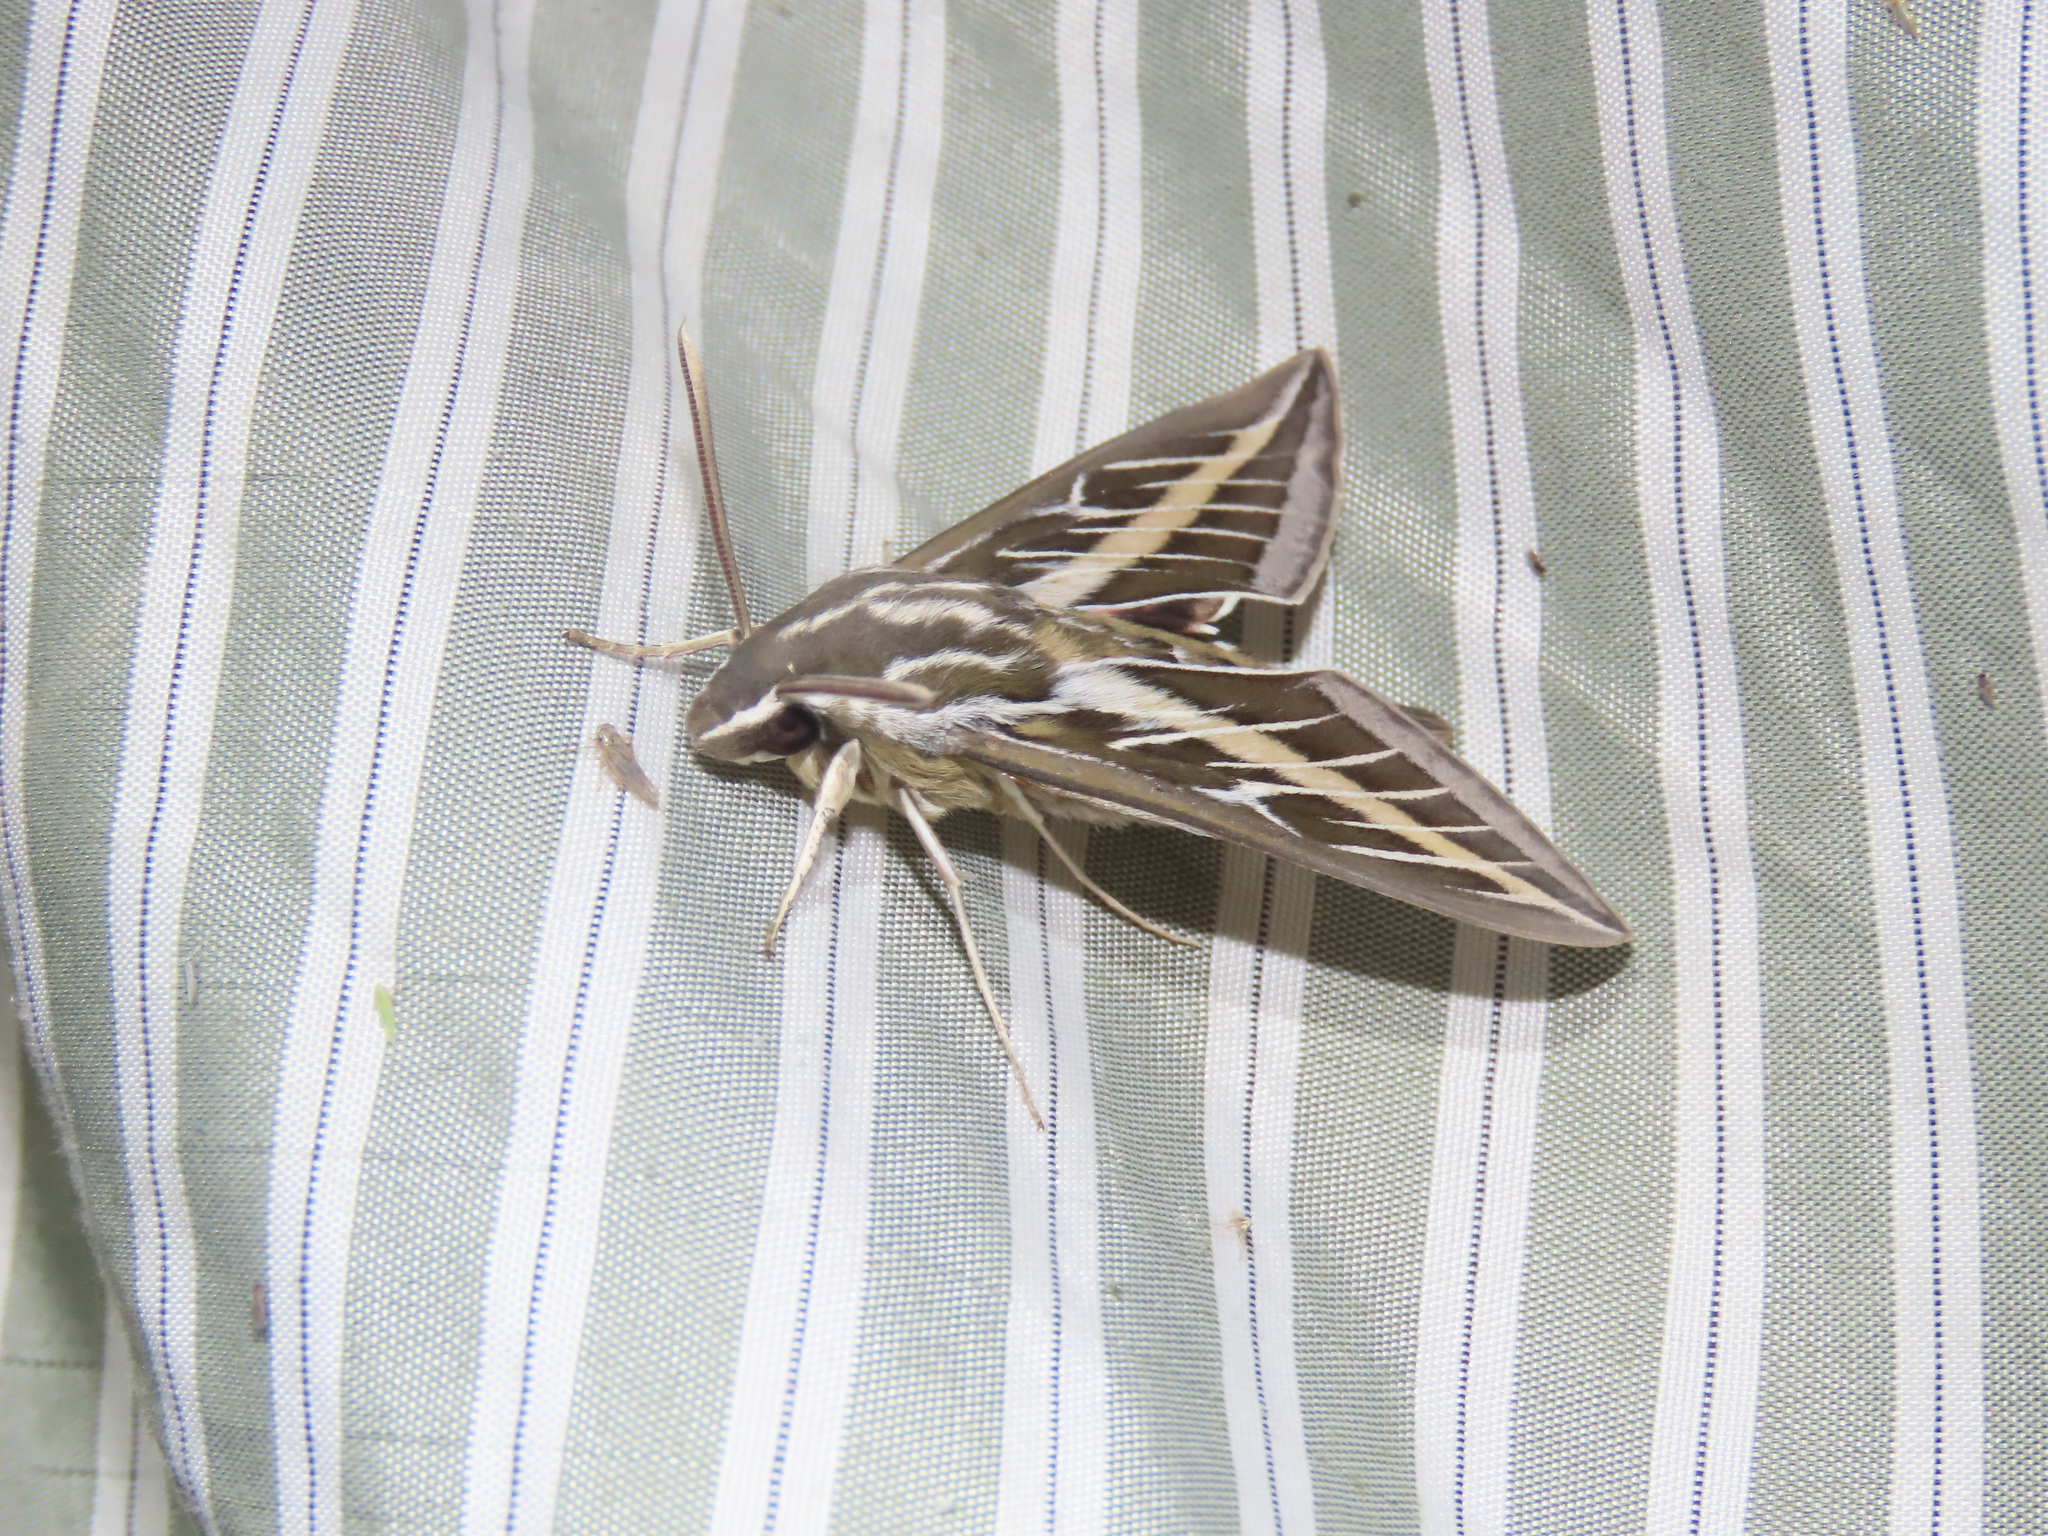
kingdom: Animalia
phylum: Arthropoda
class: Insecta
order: Lepidoptera
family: Sphingidae
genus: Hyles
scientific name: Hyles lineata
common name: White-lined sphinx
